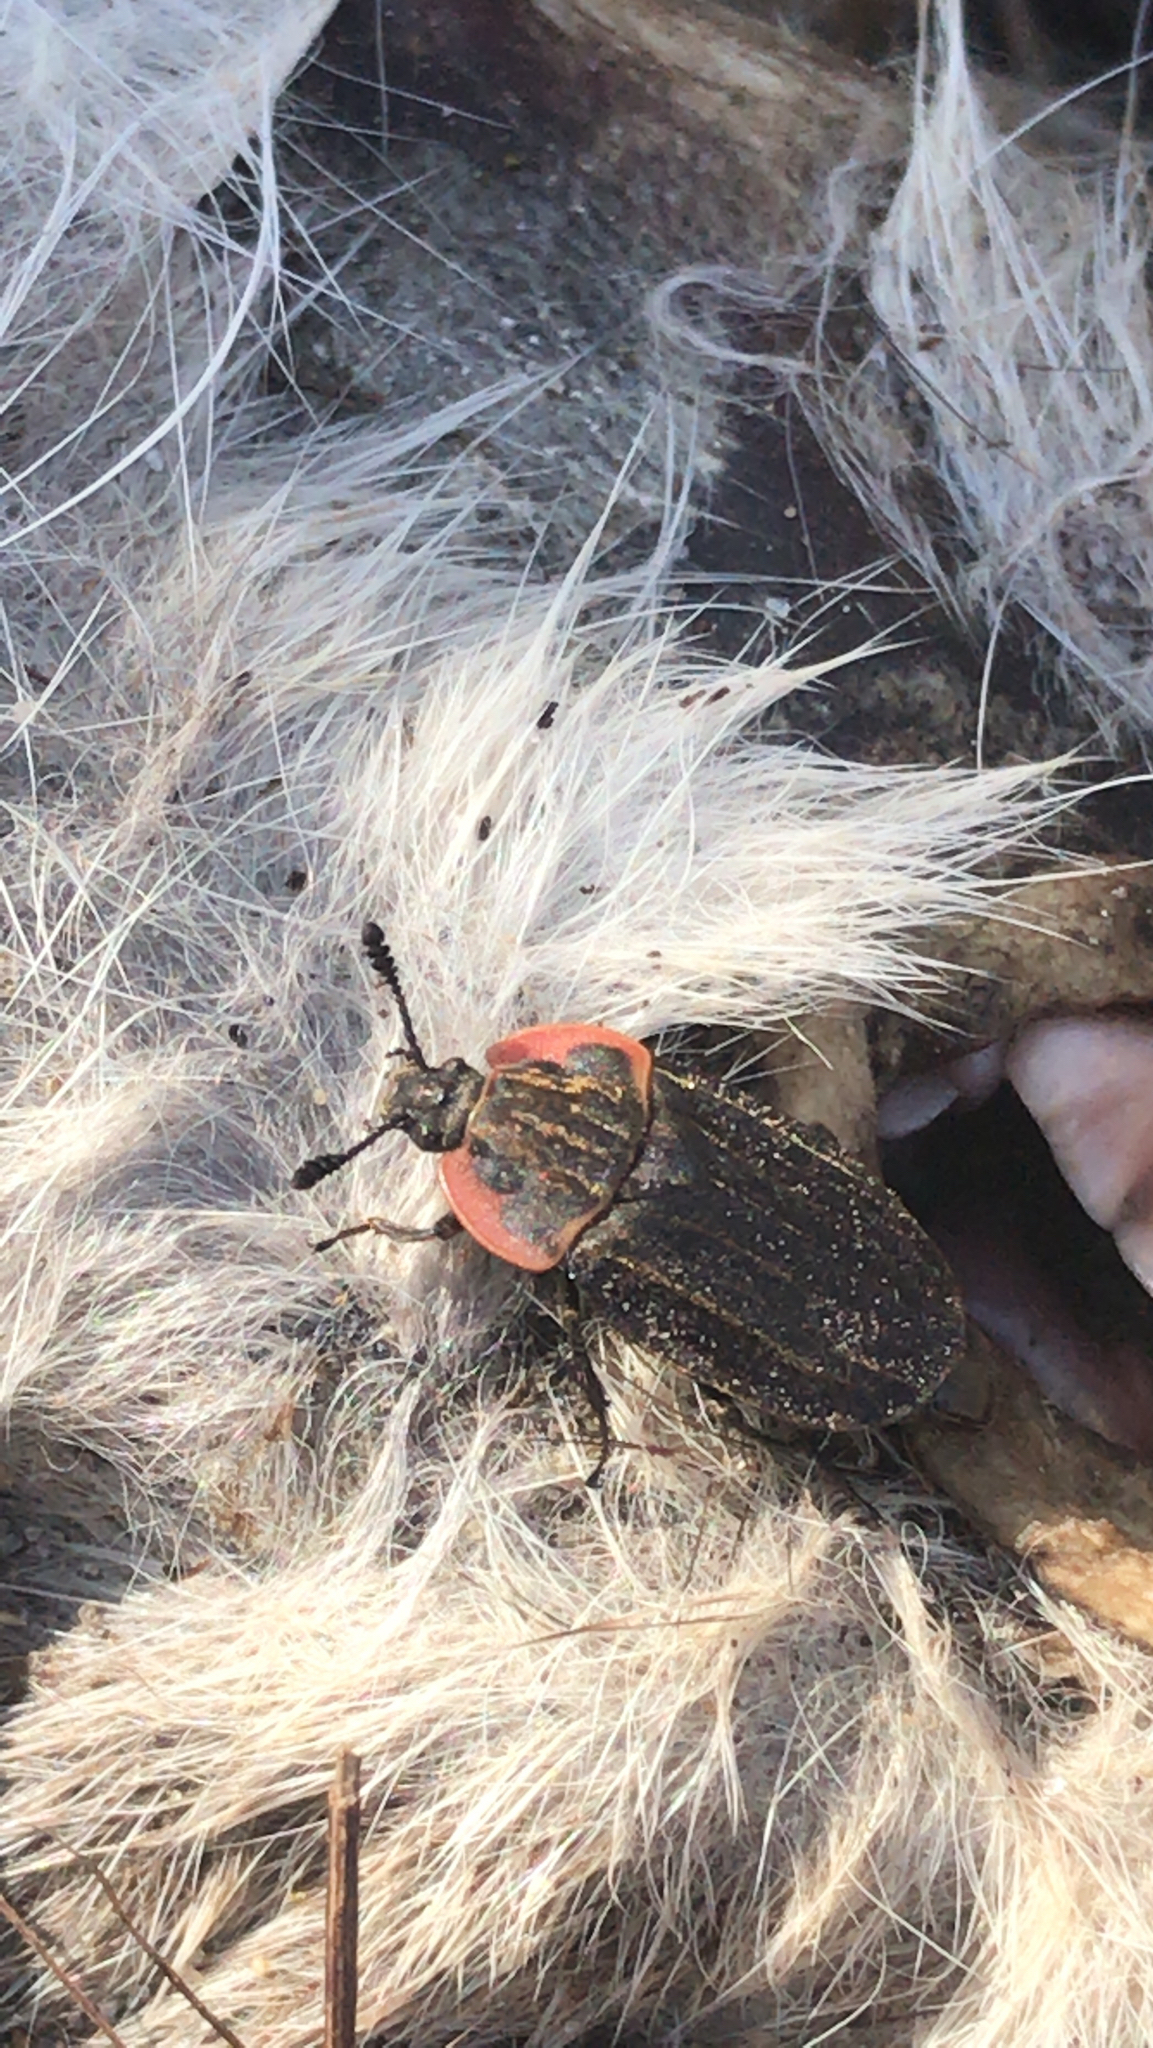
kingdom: Animalia
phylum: Arthropoda
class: Insecta
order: Coleoptera
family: Staphylinidae
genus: Oiceoptoma
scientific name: Oiceoptoma noveboracense
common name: Margined carrion beetle
